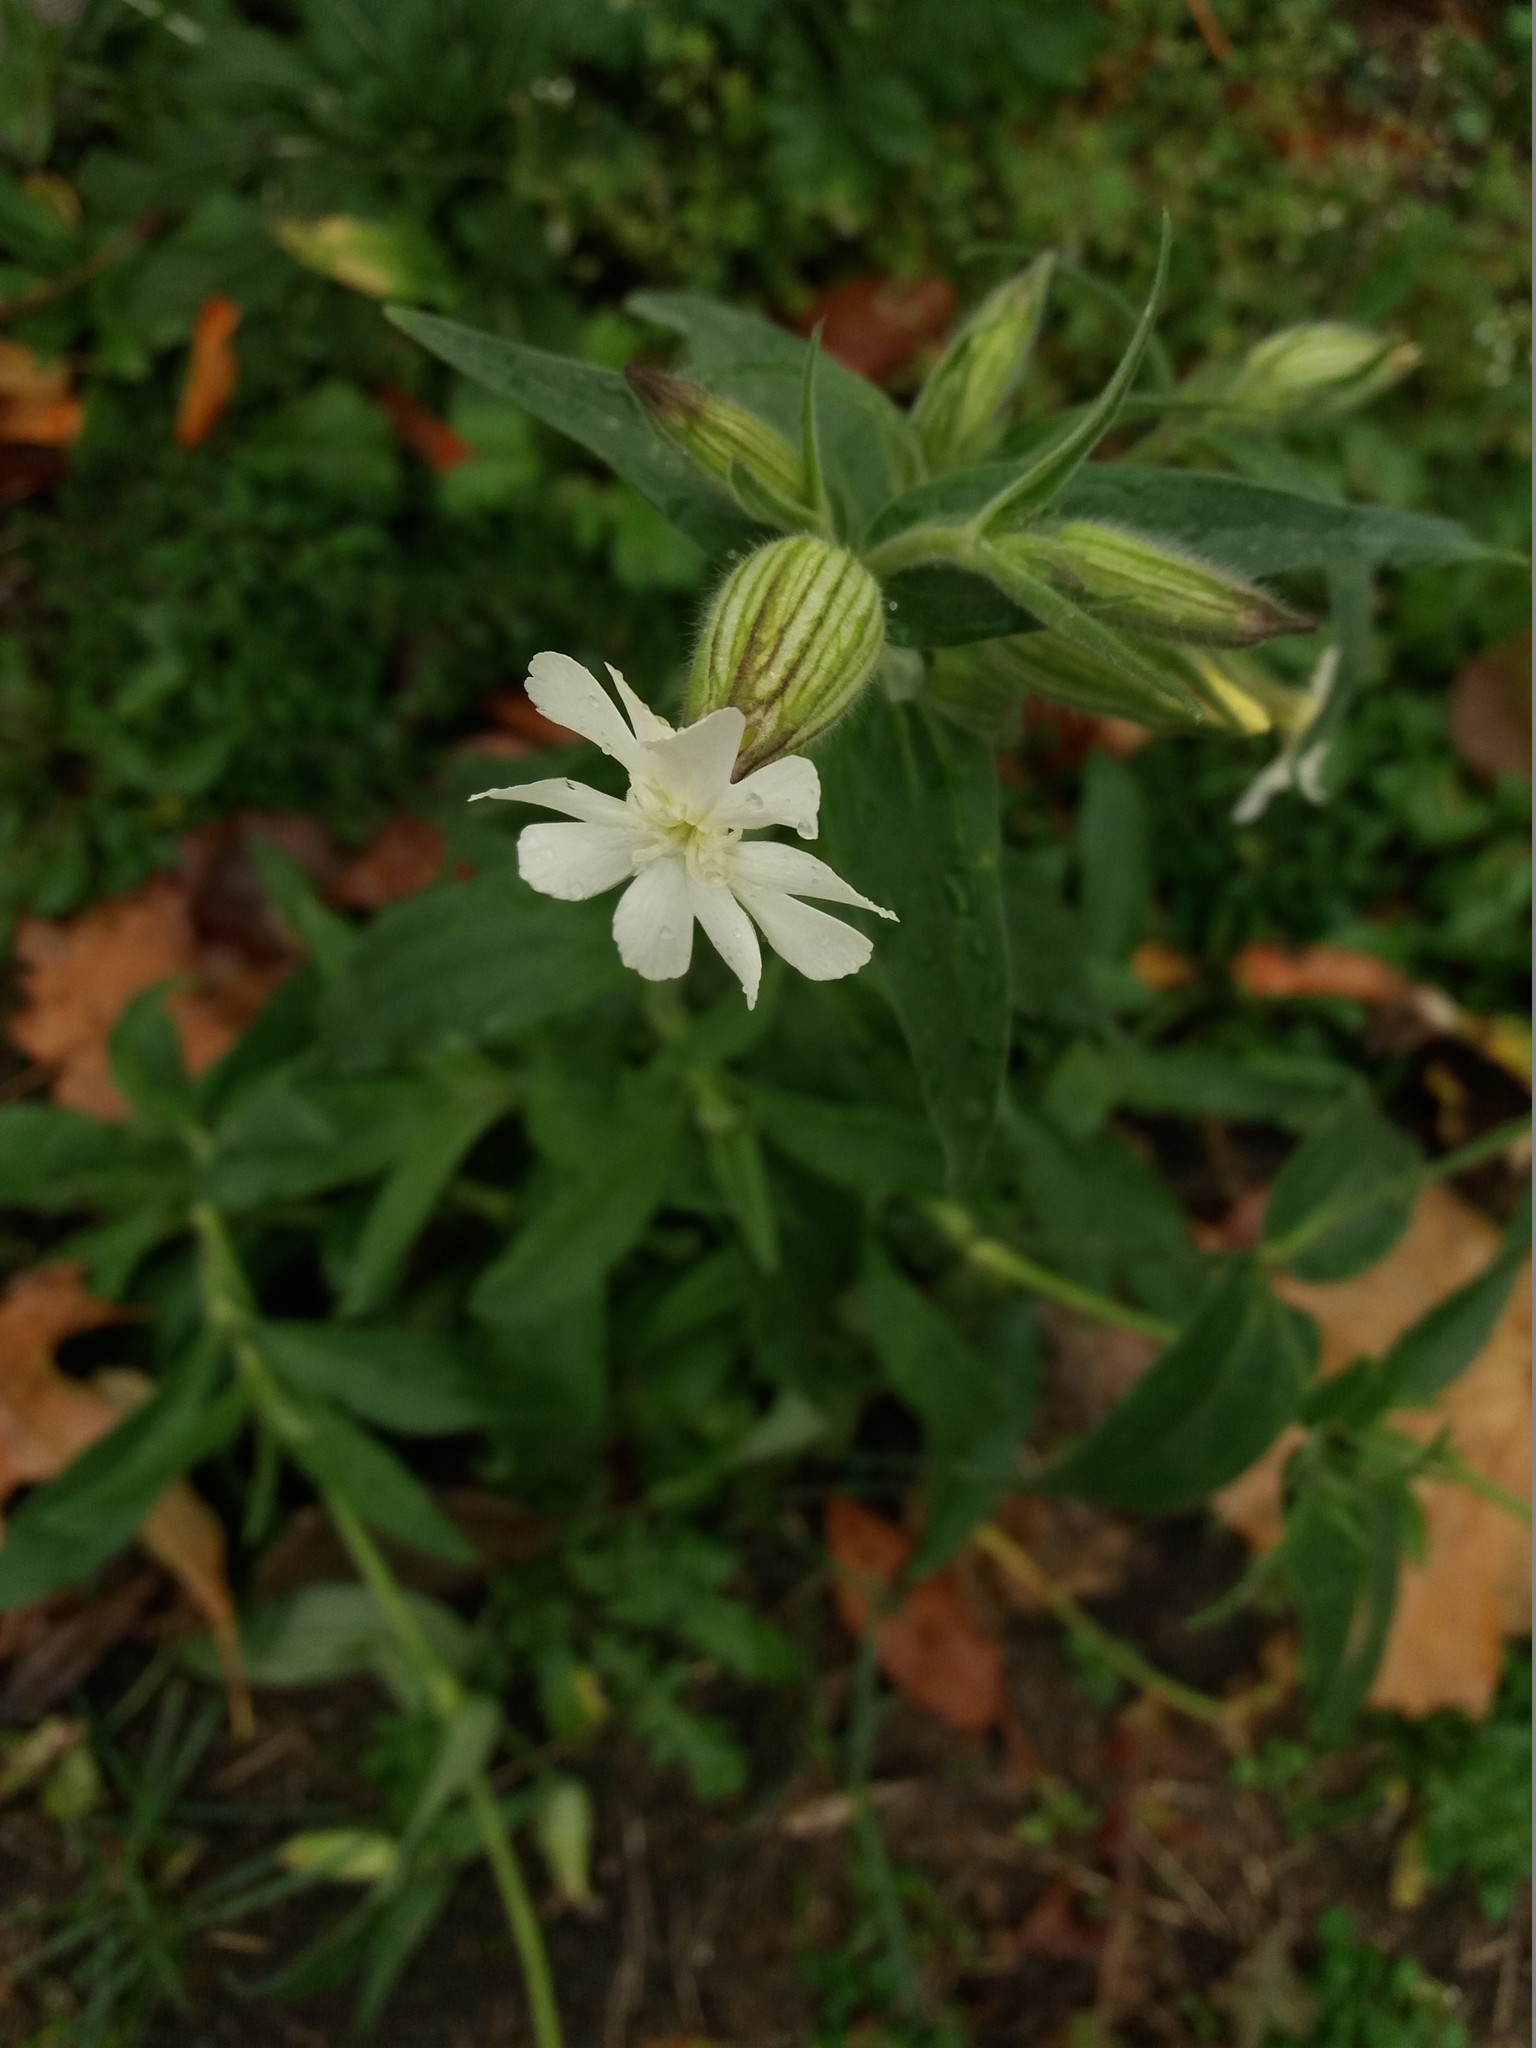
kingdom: Plantae
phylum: Tracheophyta
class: Magnoliopsida
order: Caryophyllales
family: Caryophyllaceae
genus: Silene
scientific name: Silene latifolia
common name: White campion
